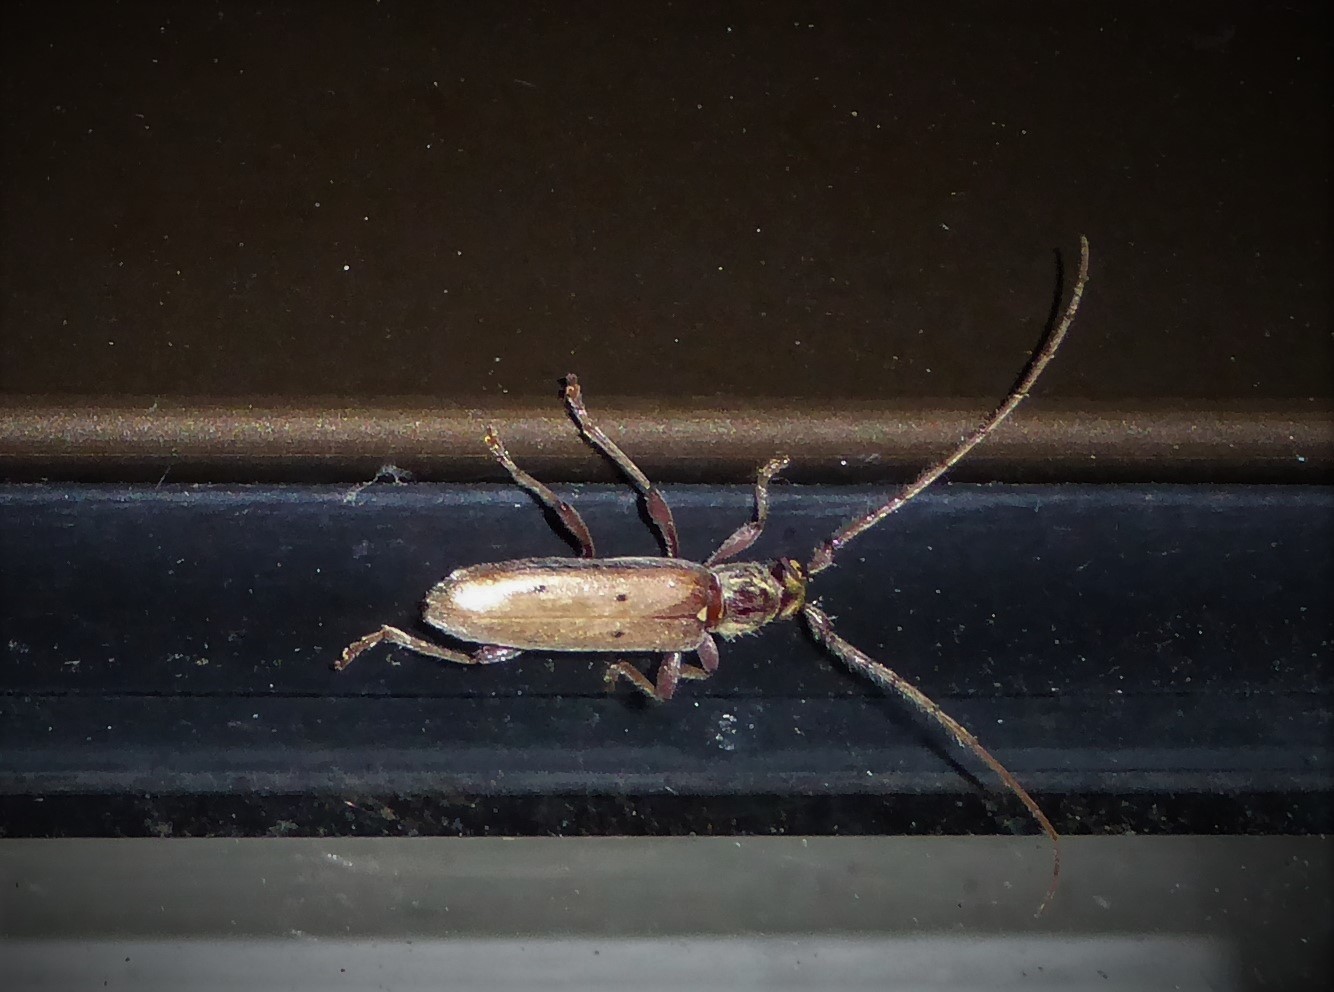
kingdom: Animalia
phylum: Arthropoda
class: Insecta
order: Coleoptera
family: Cerambycidae
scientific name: Cerambycidae
